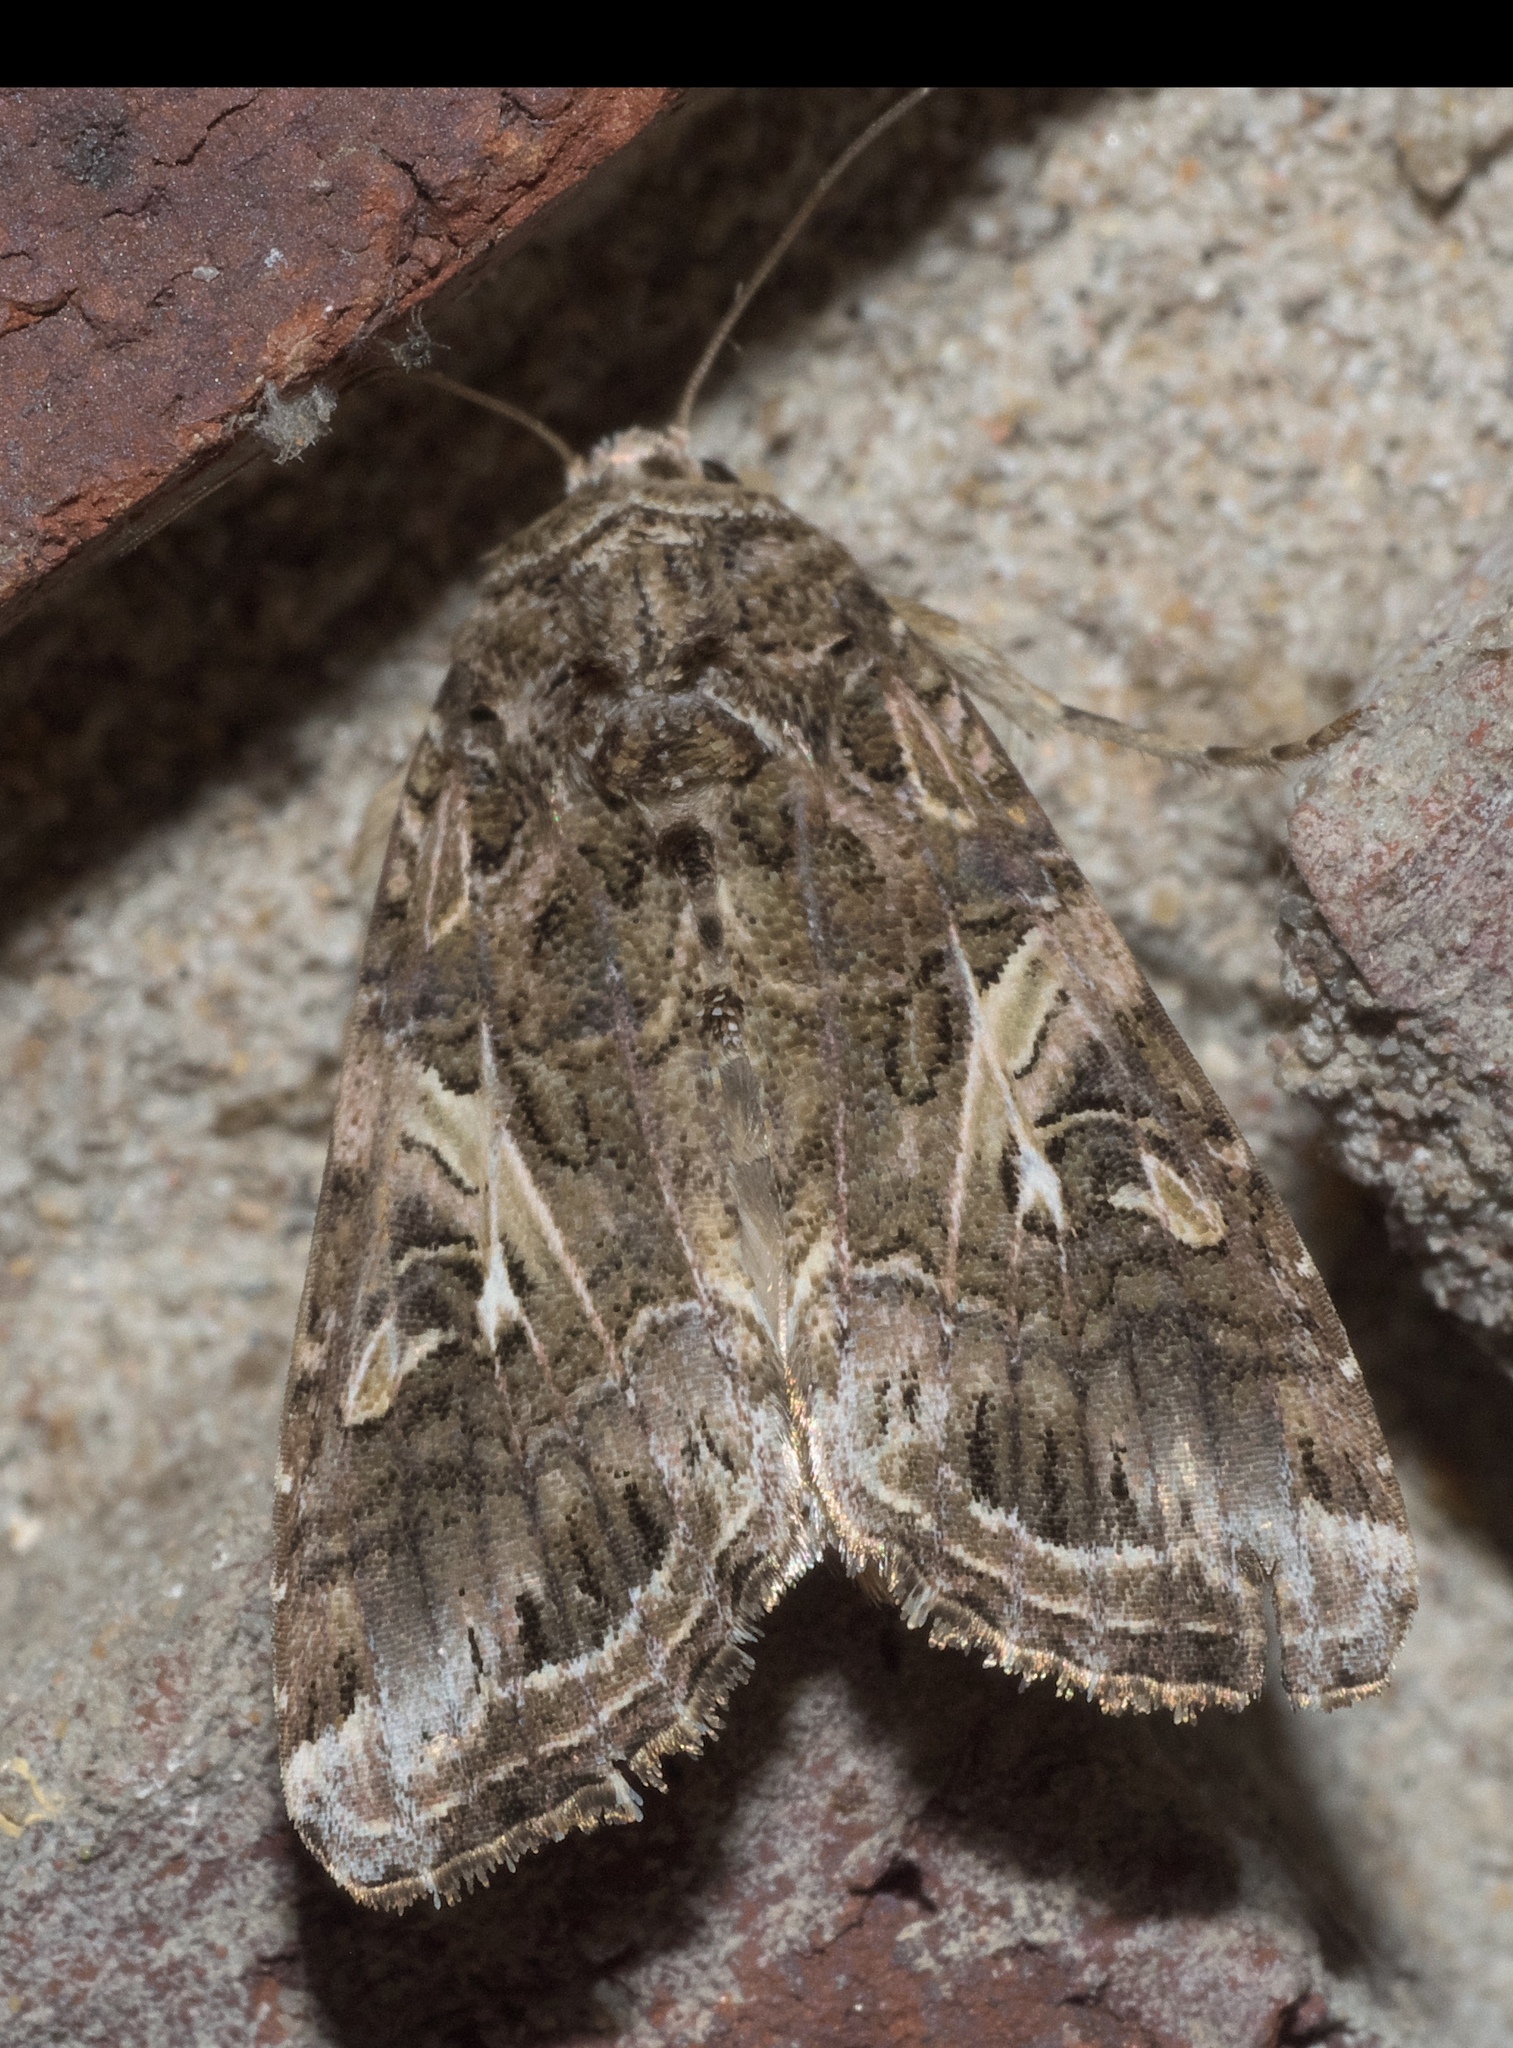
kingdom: Animalia
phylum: Arthropoda
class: Insecta
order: Lepidoptera
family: Noctuidae
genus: Spodoptera
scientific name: Spodoptera ornithogalli
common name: Yellow-striped armyworm
